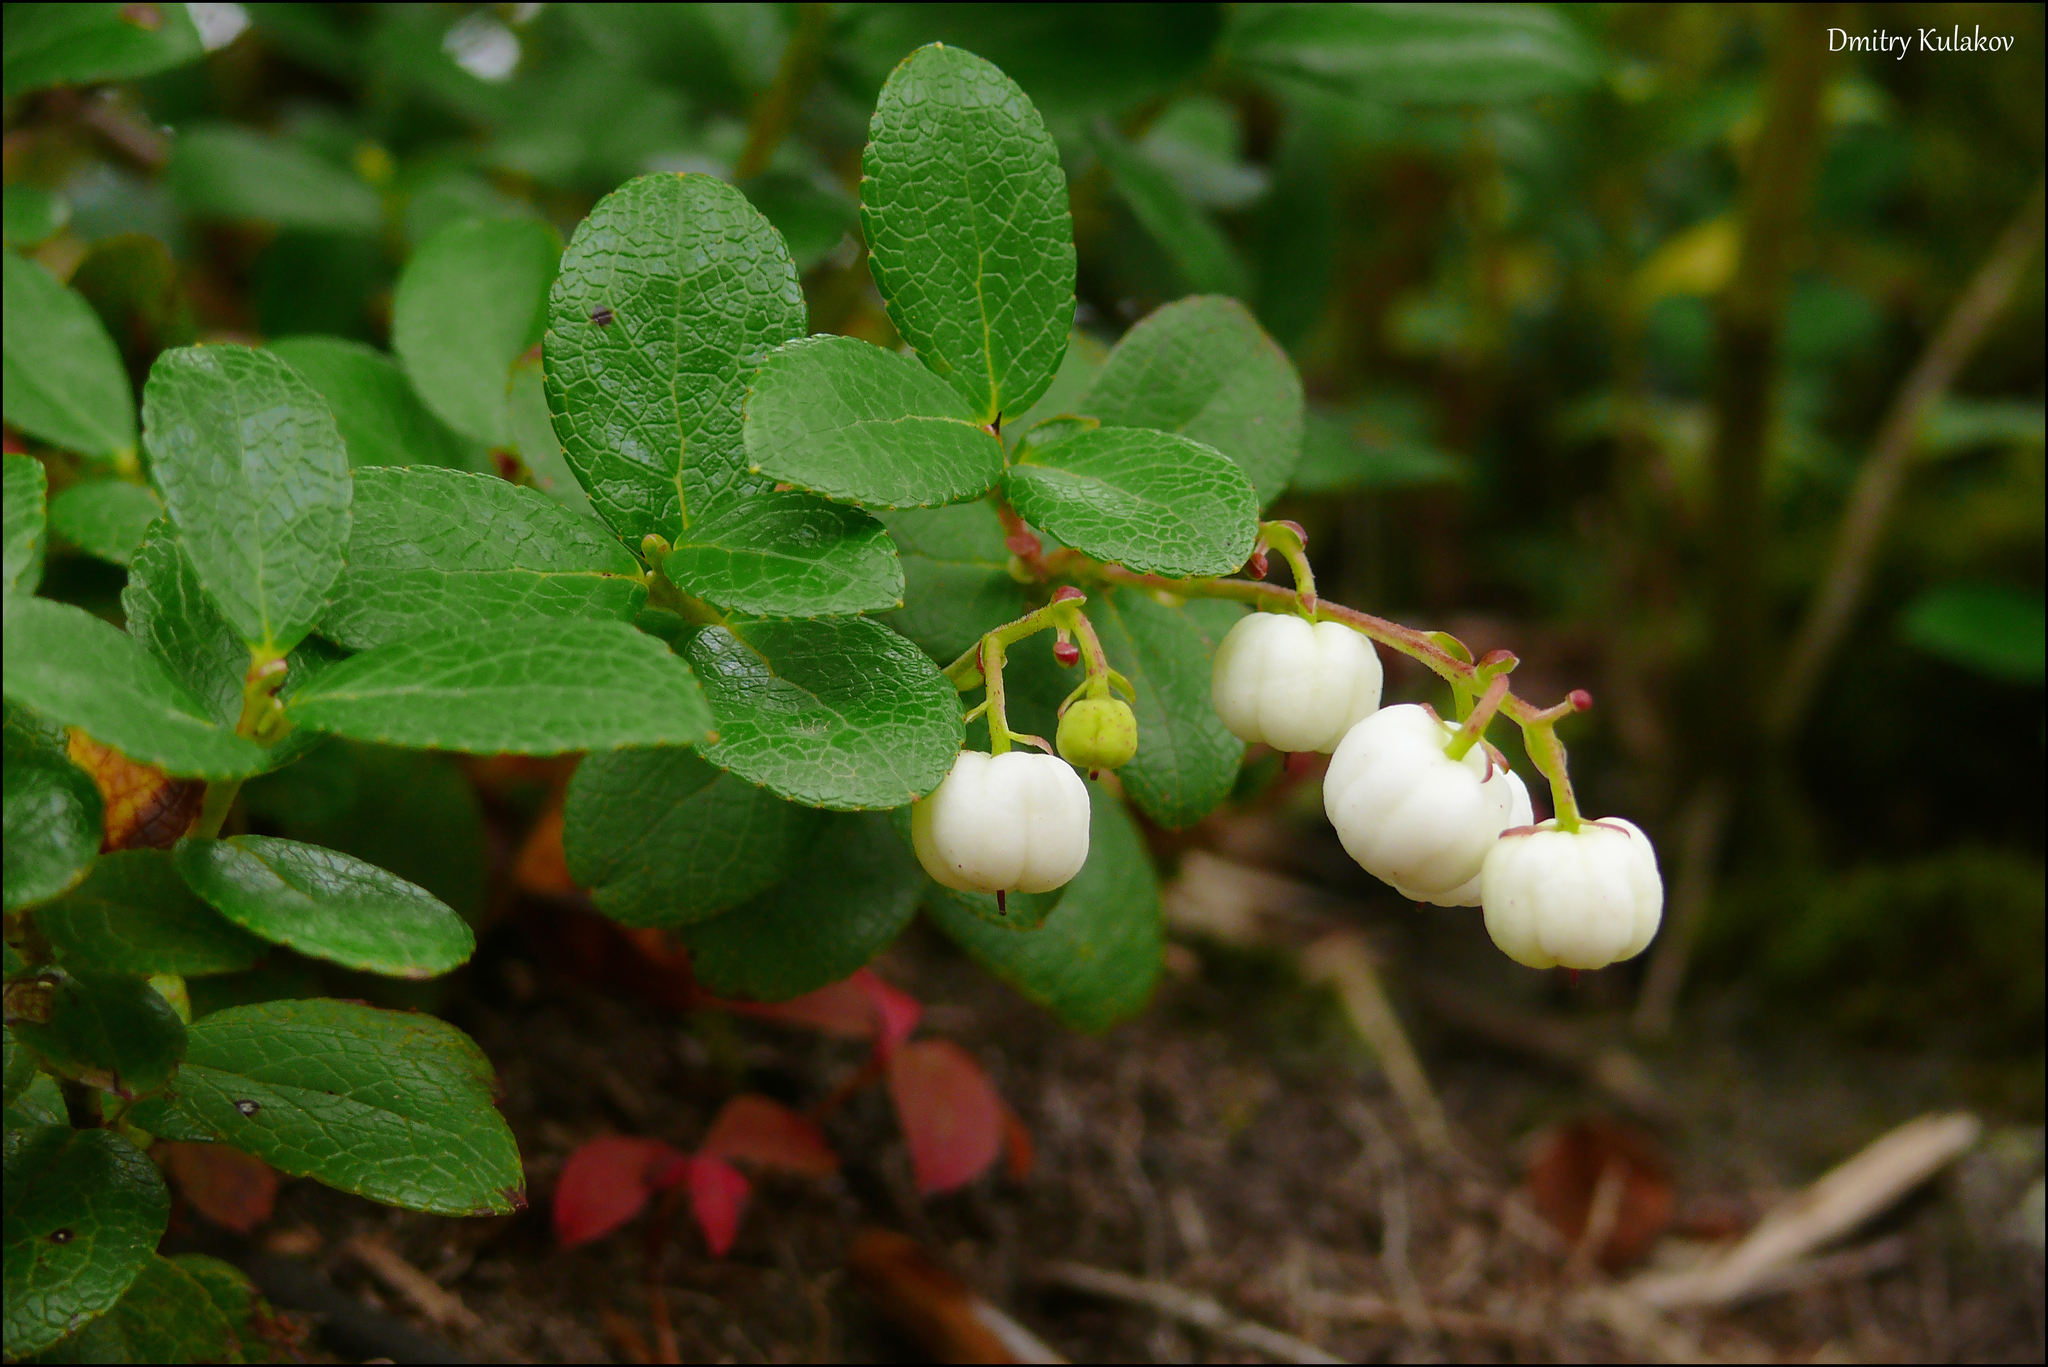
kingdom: Plantae
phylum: Tracheophyta
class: Magnoliopsida
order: Ericales
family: Ericaceae
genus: Gaultheria
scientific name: Gaultheria pyroloides
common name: Japanese wintergreen
